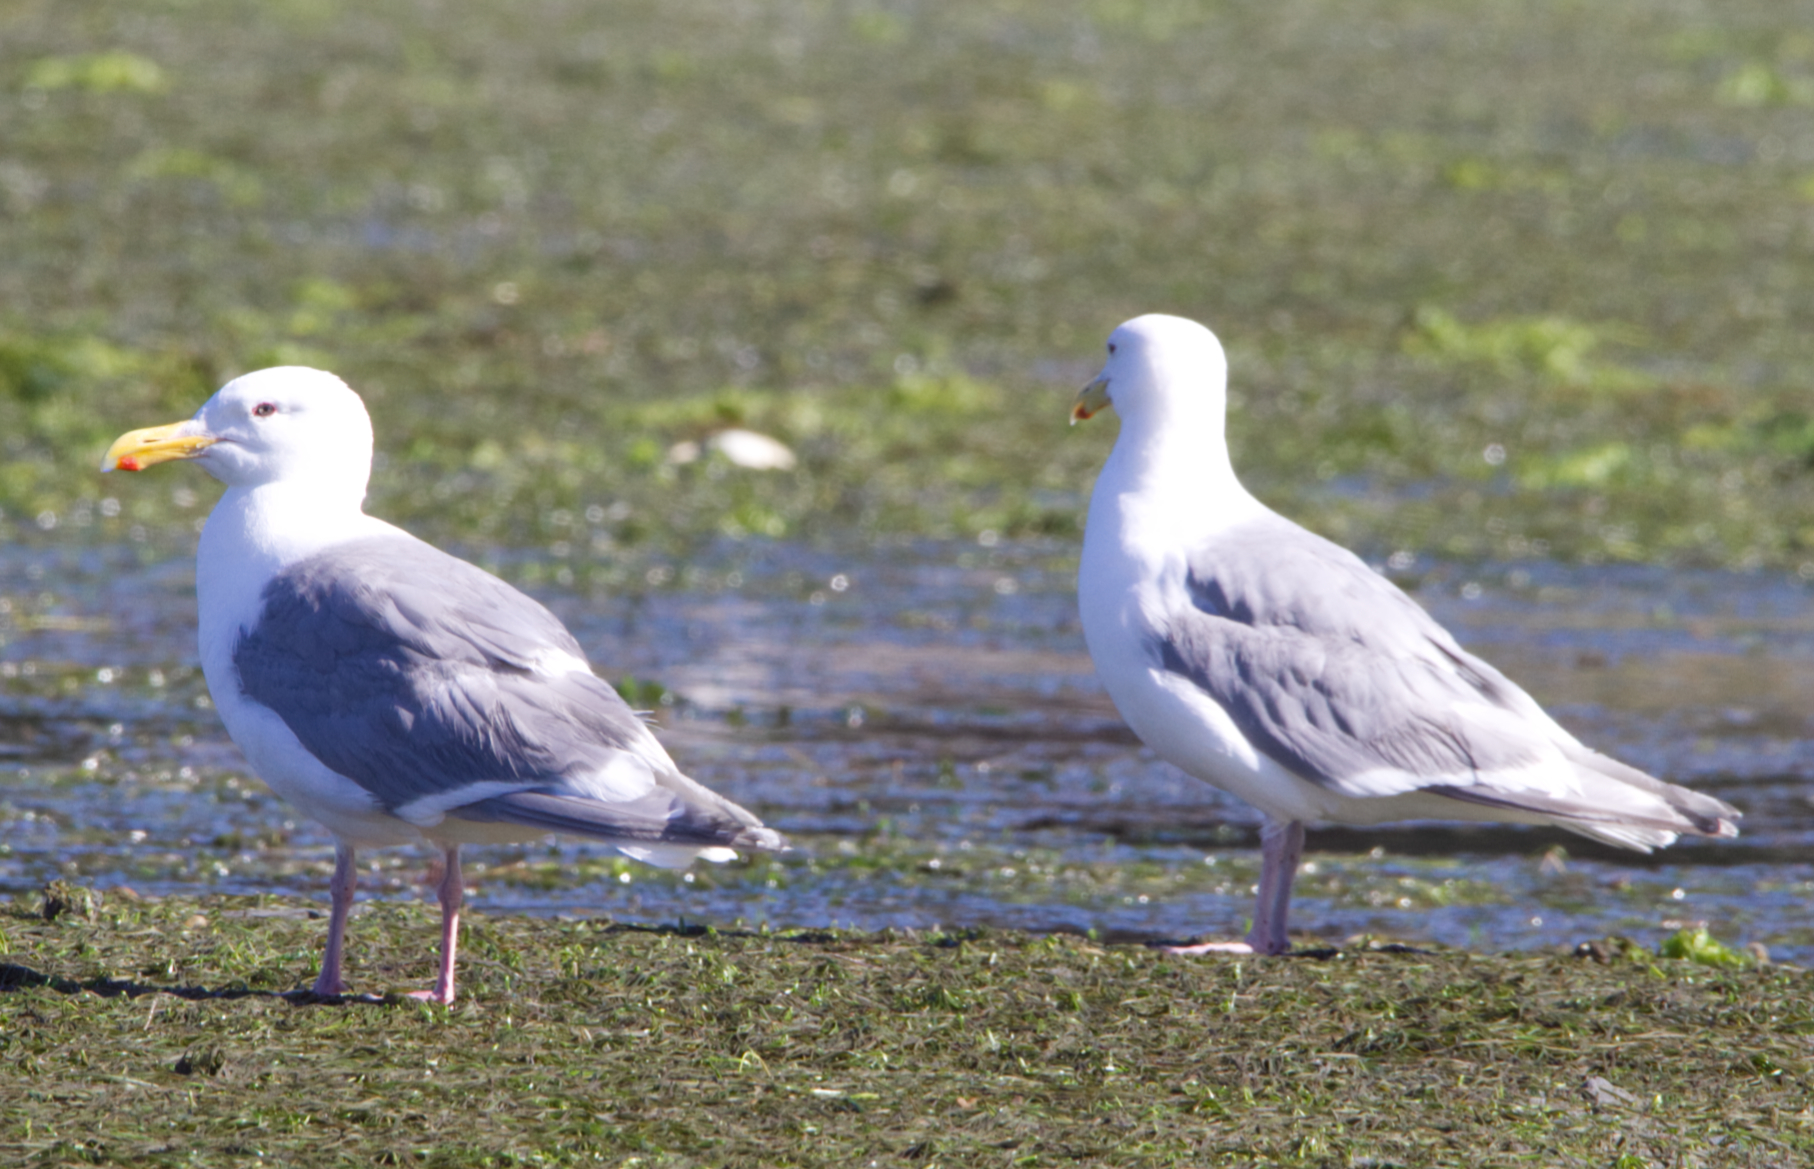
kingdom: Animalia
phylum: Chordata
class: Aves
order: Charadriiformes
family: Laridae
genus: Larus
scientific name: Larus glaucescens
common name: Glaucous-winged gull
